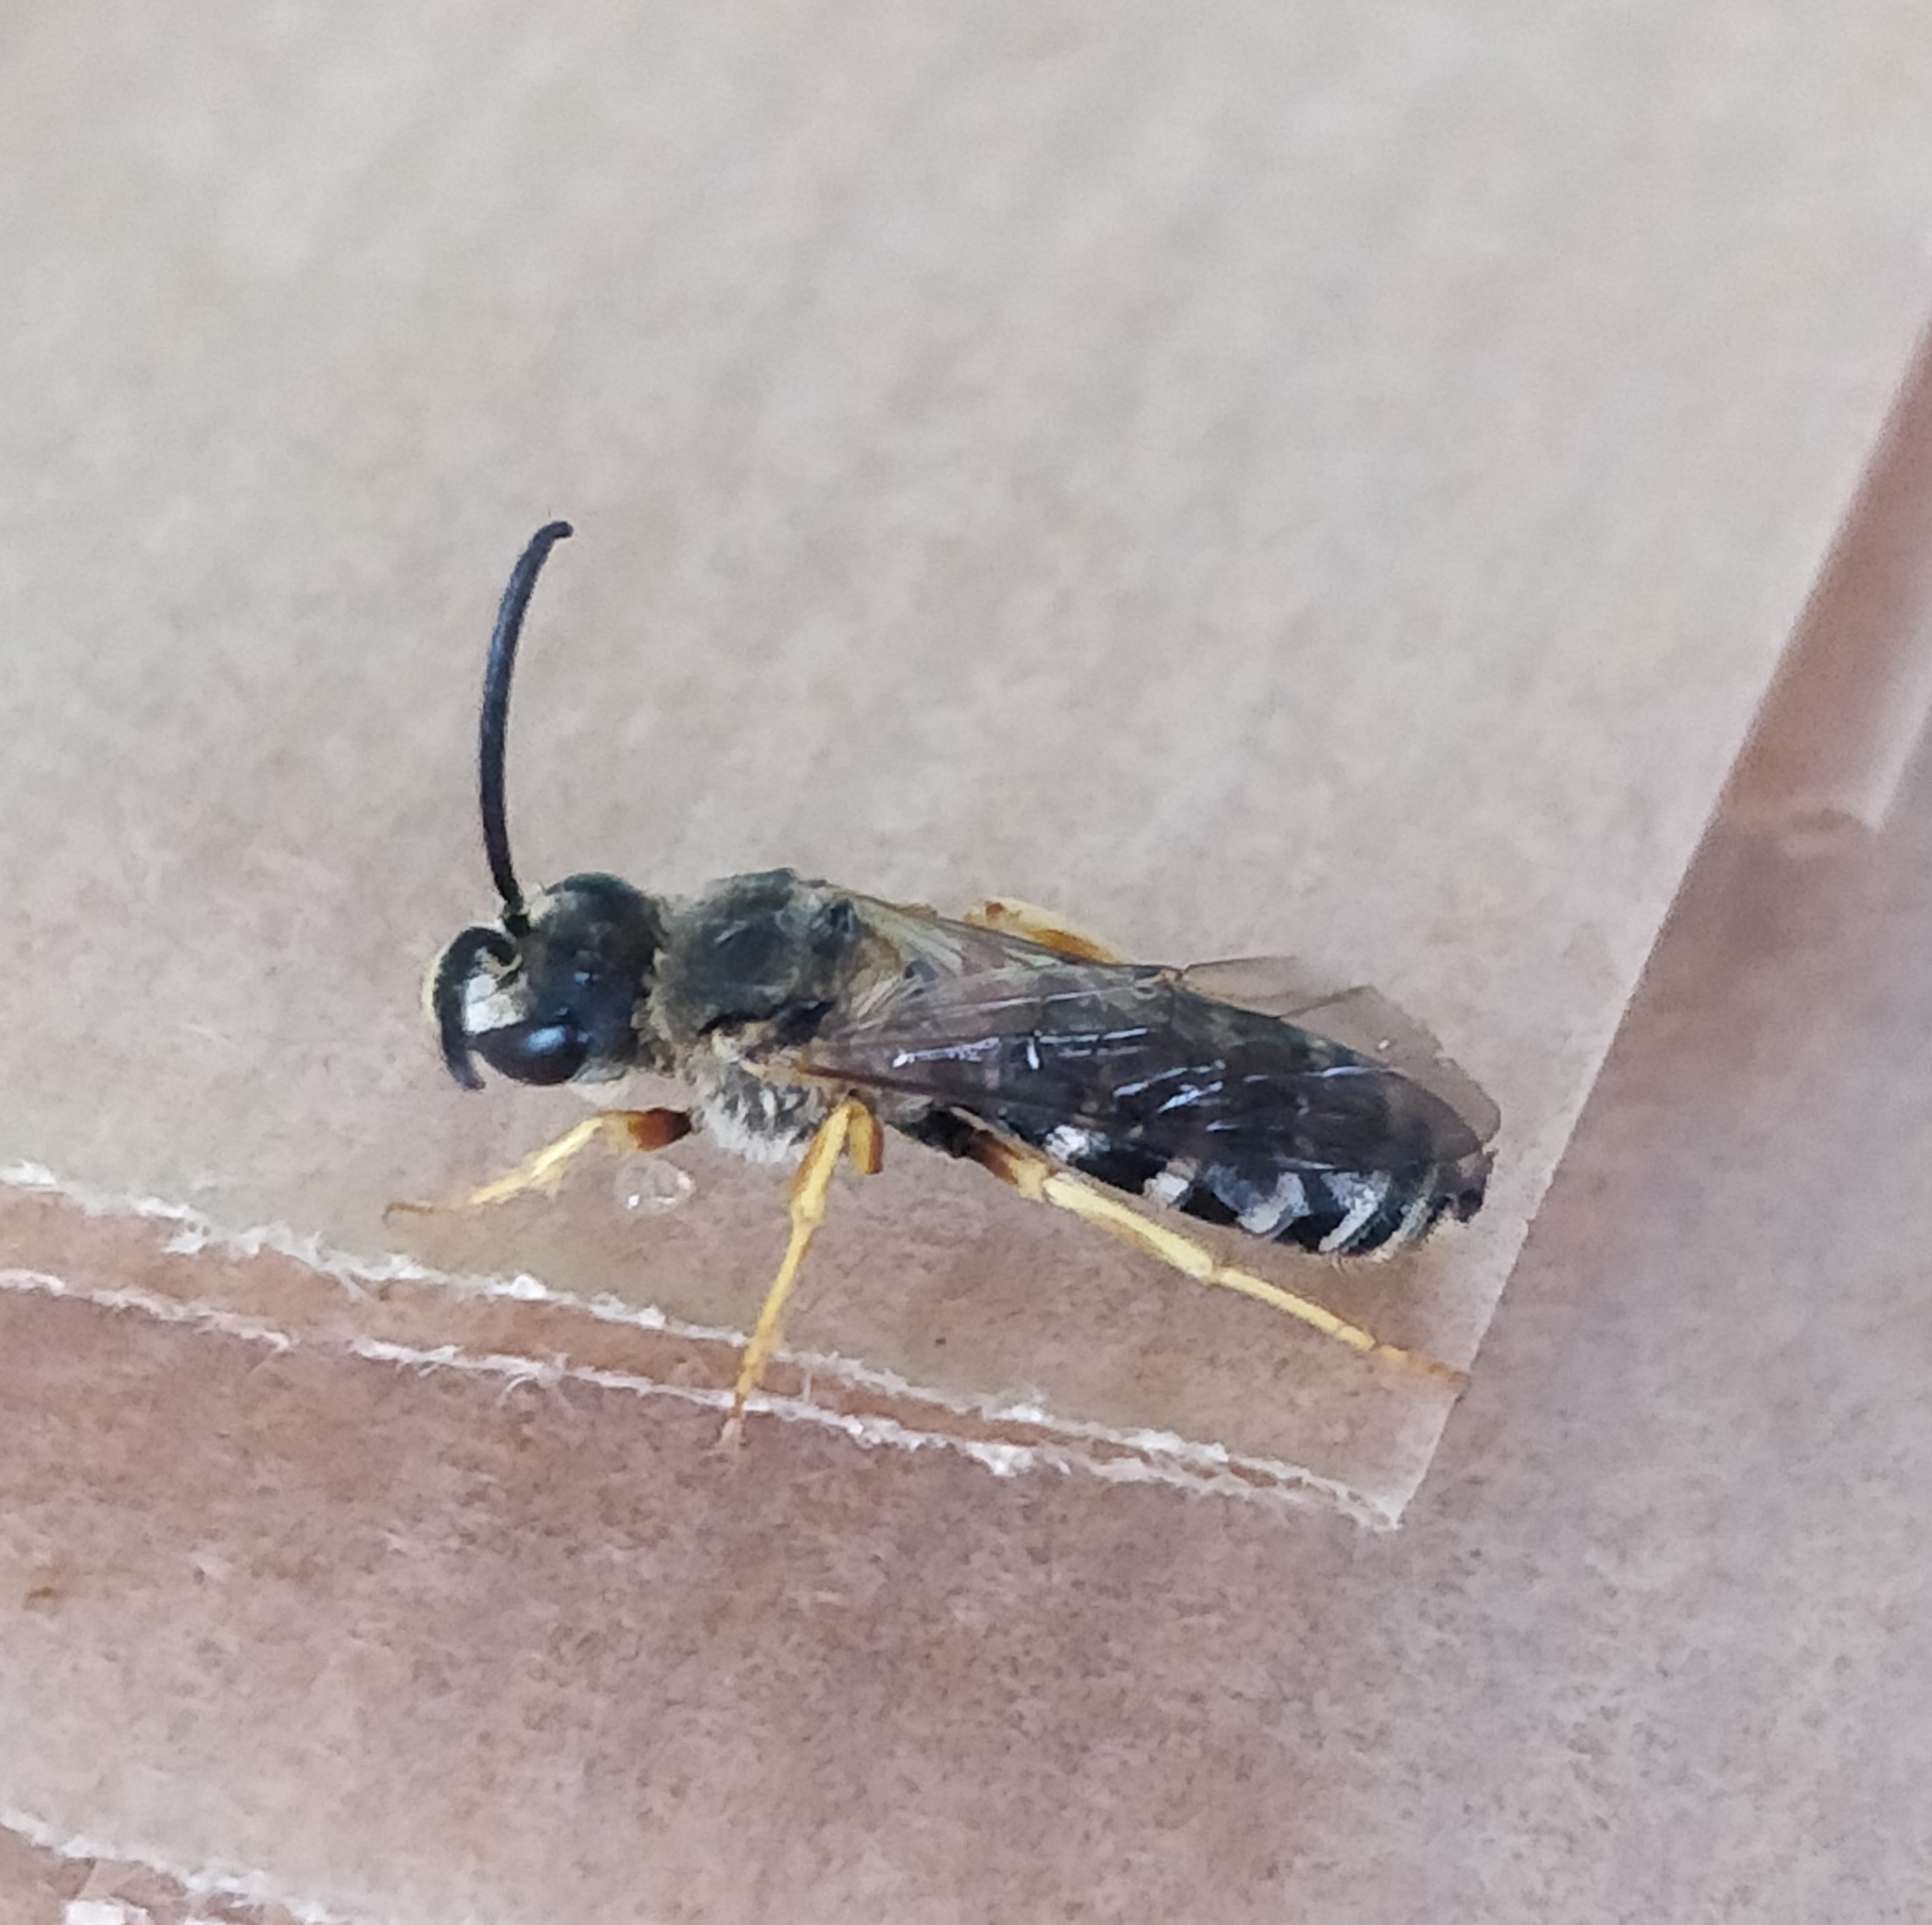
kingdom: Animalia
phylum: Arthropoda
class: Insecta
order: Hymenoptera
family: Halictidae
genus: Halictus
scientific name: Halictus fulvipes
